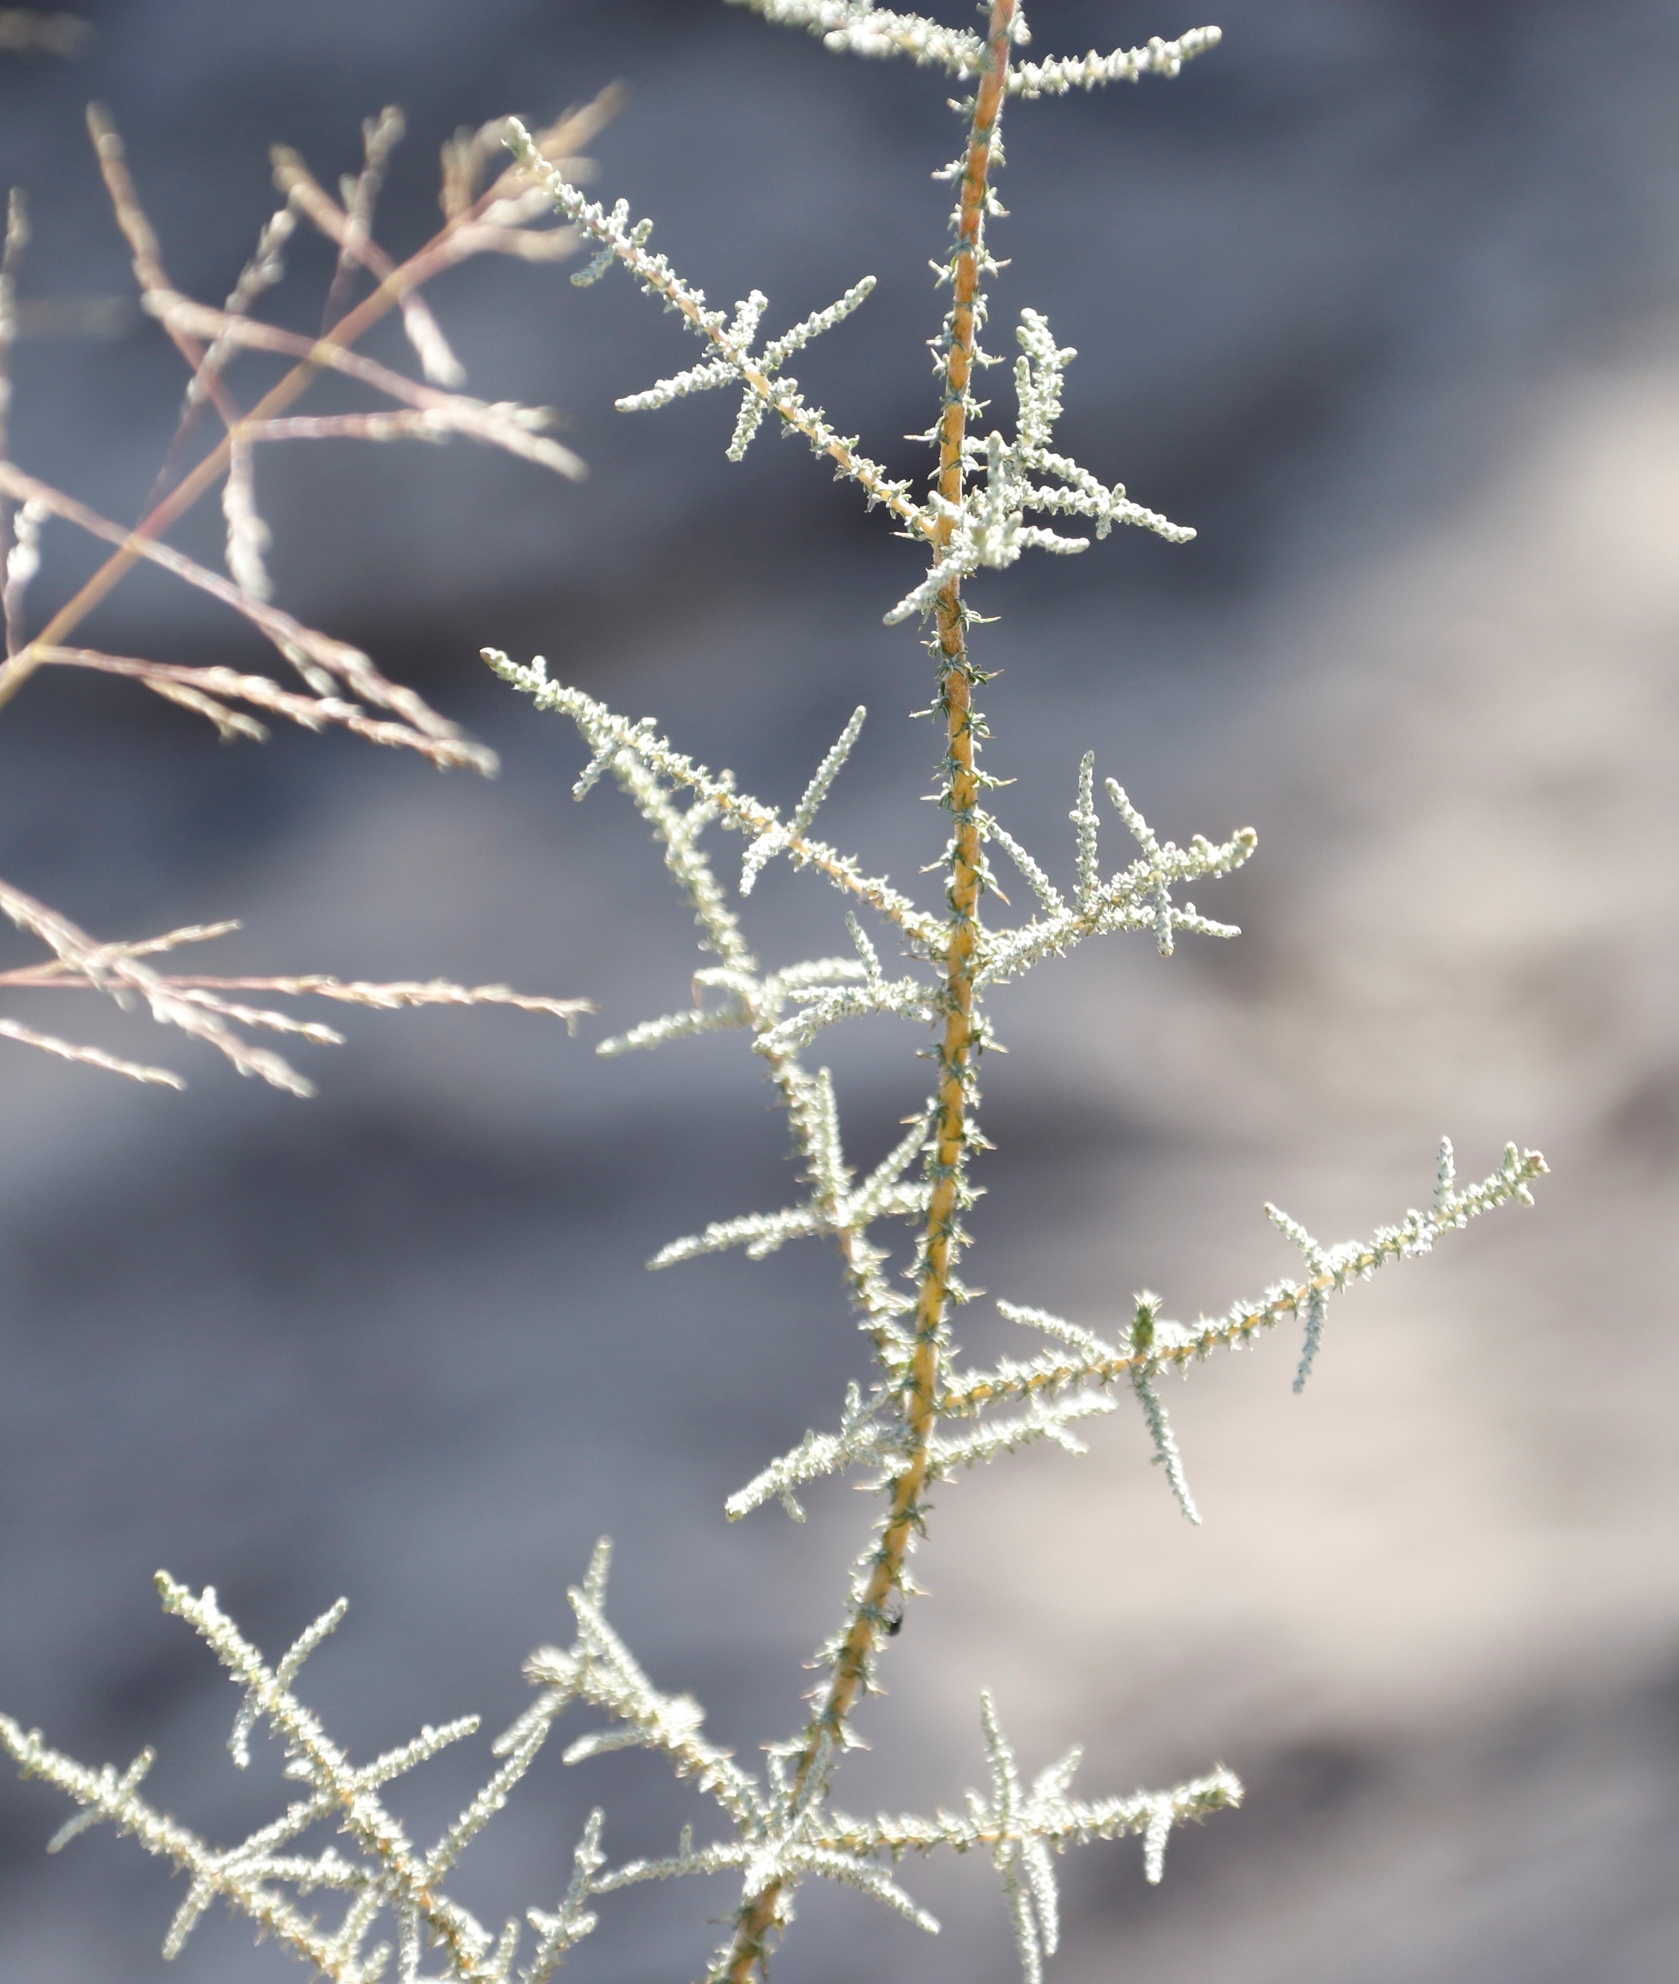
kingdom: Plantae
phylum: Tracheophyta
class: Magnoliopsida
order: Asterales
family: Asteraceae
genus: Seriphium
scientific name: Seriphium plumosum
